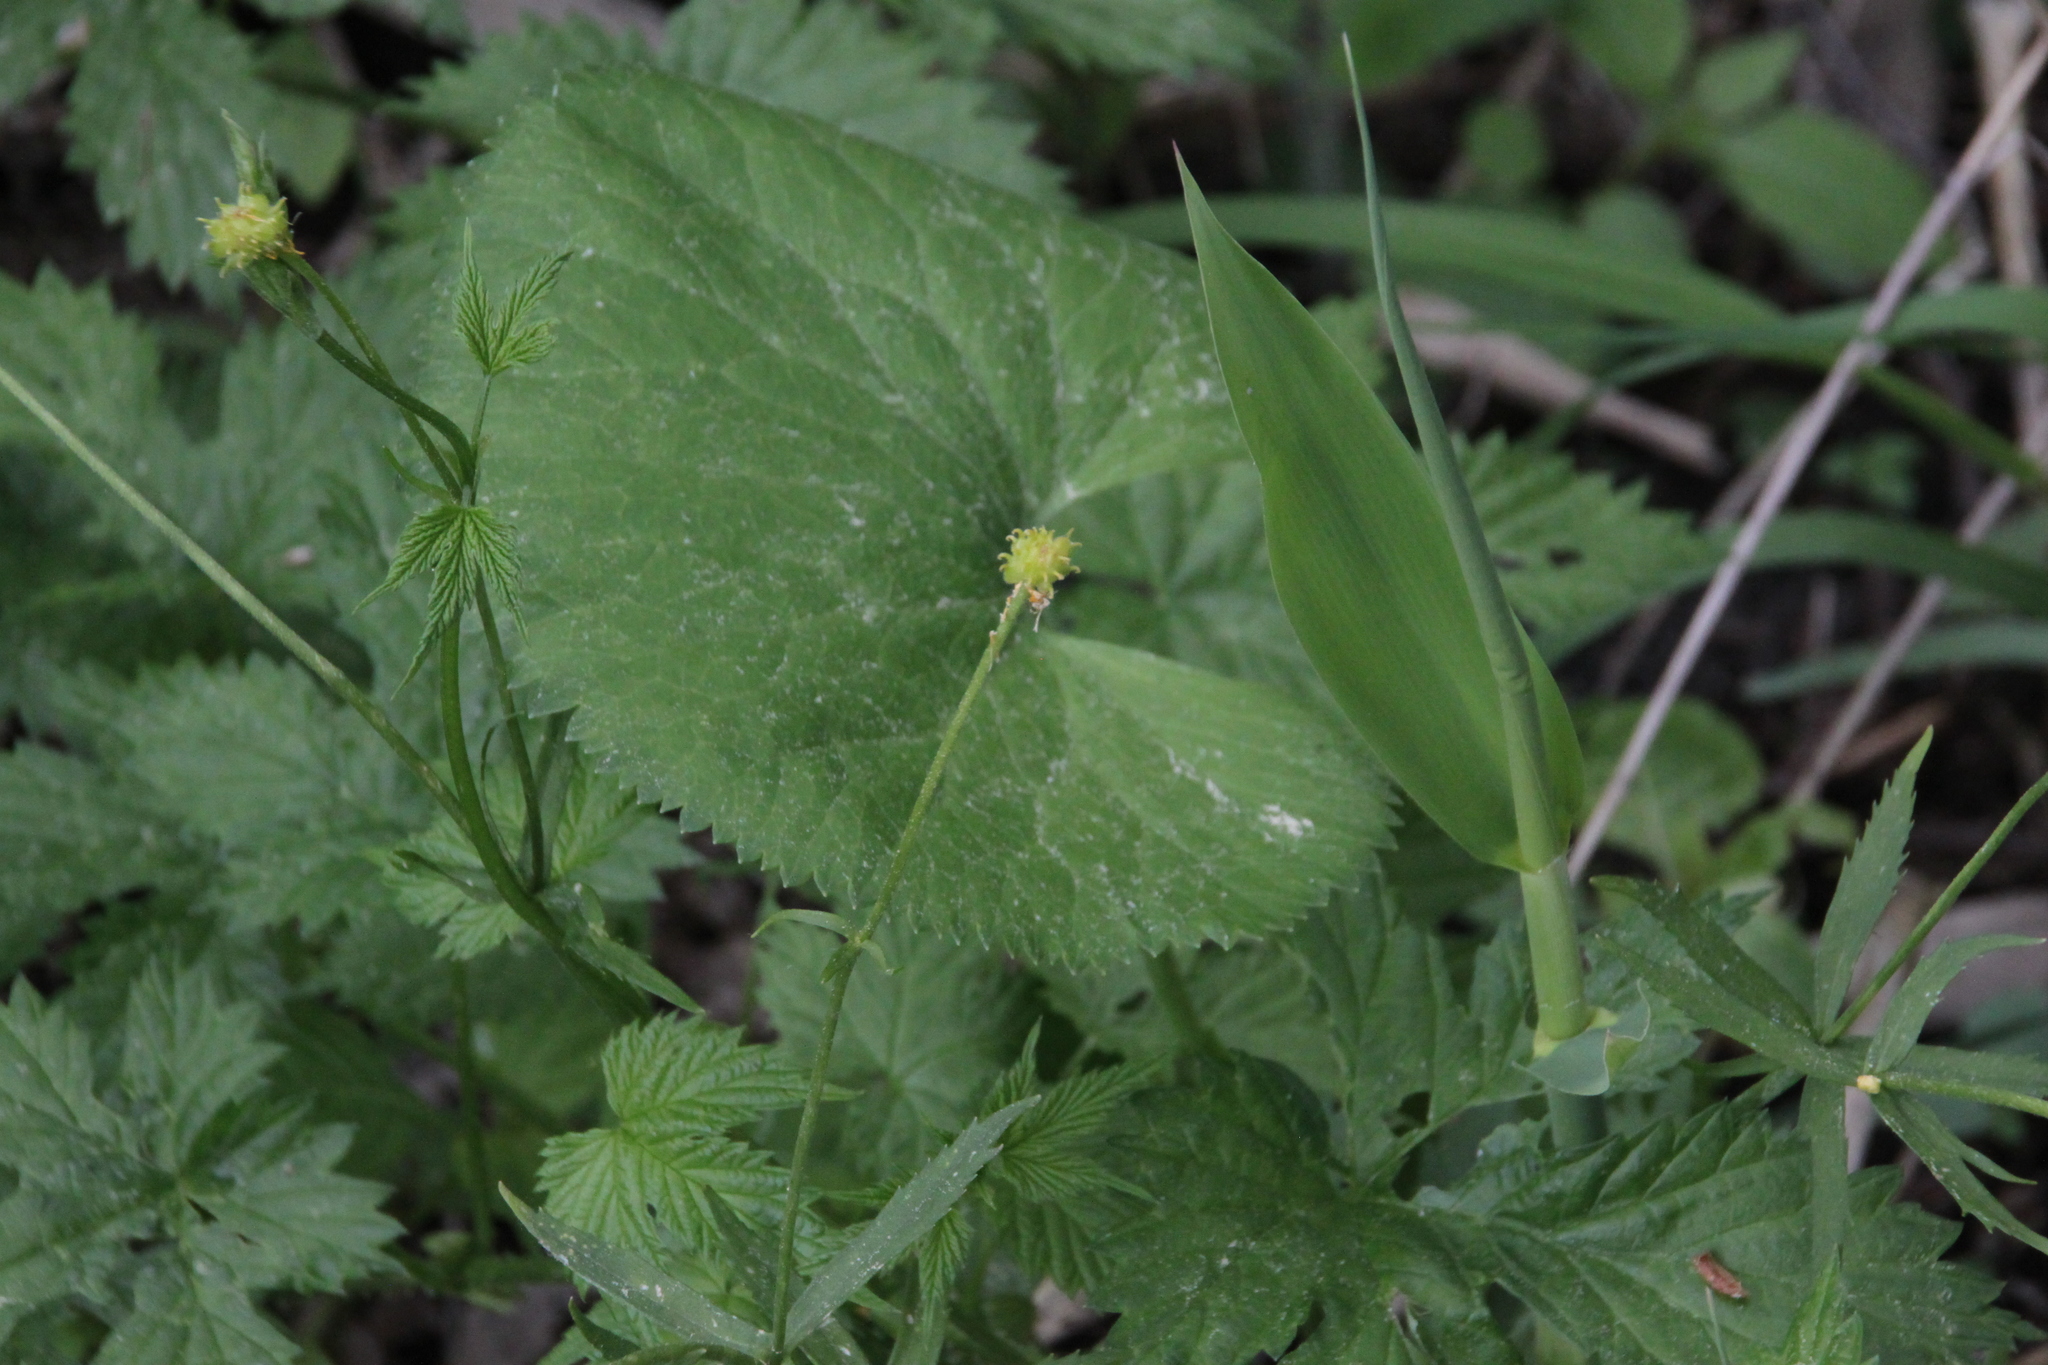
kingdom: Plantae
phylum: Tracheophyta
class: Magnoliopsida
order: Ranunculales
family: Ranunculaceae
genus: Ranunculus
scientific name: Ranunculus cassubicus
